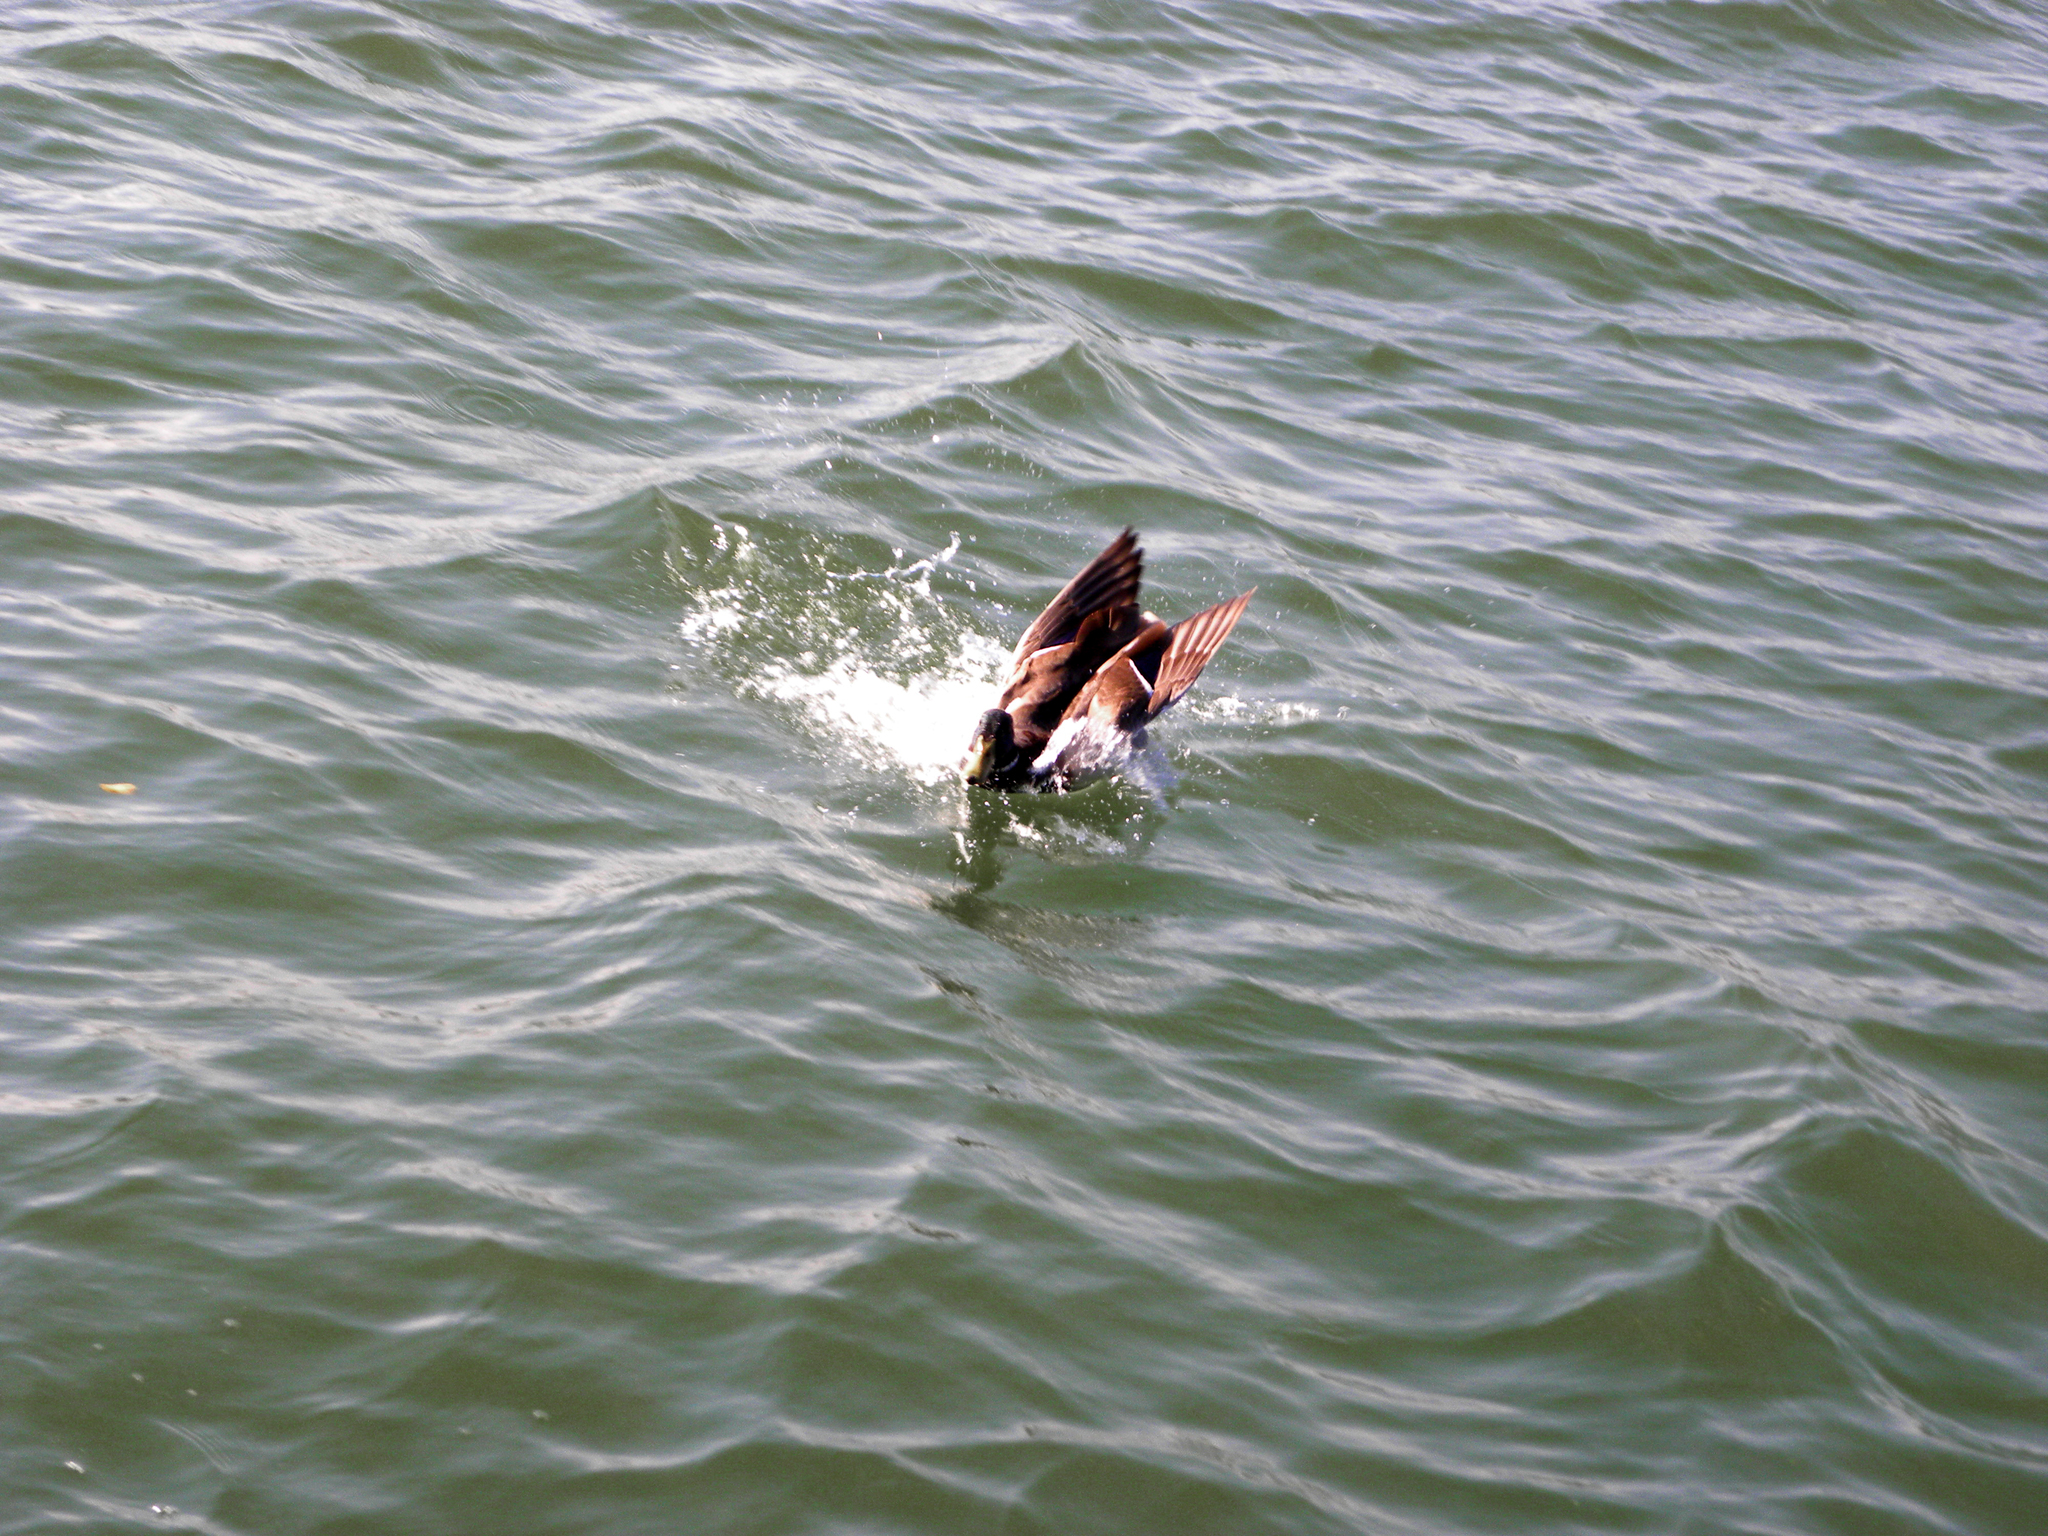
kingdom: Animalia
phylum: Chordata
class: Aves
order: Anseriformes
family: Anatidae
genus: Anas
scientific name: Anas platyrhynchos
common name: Mallard
